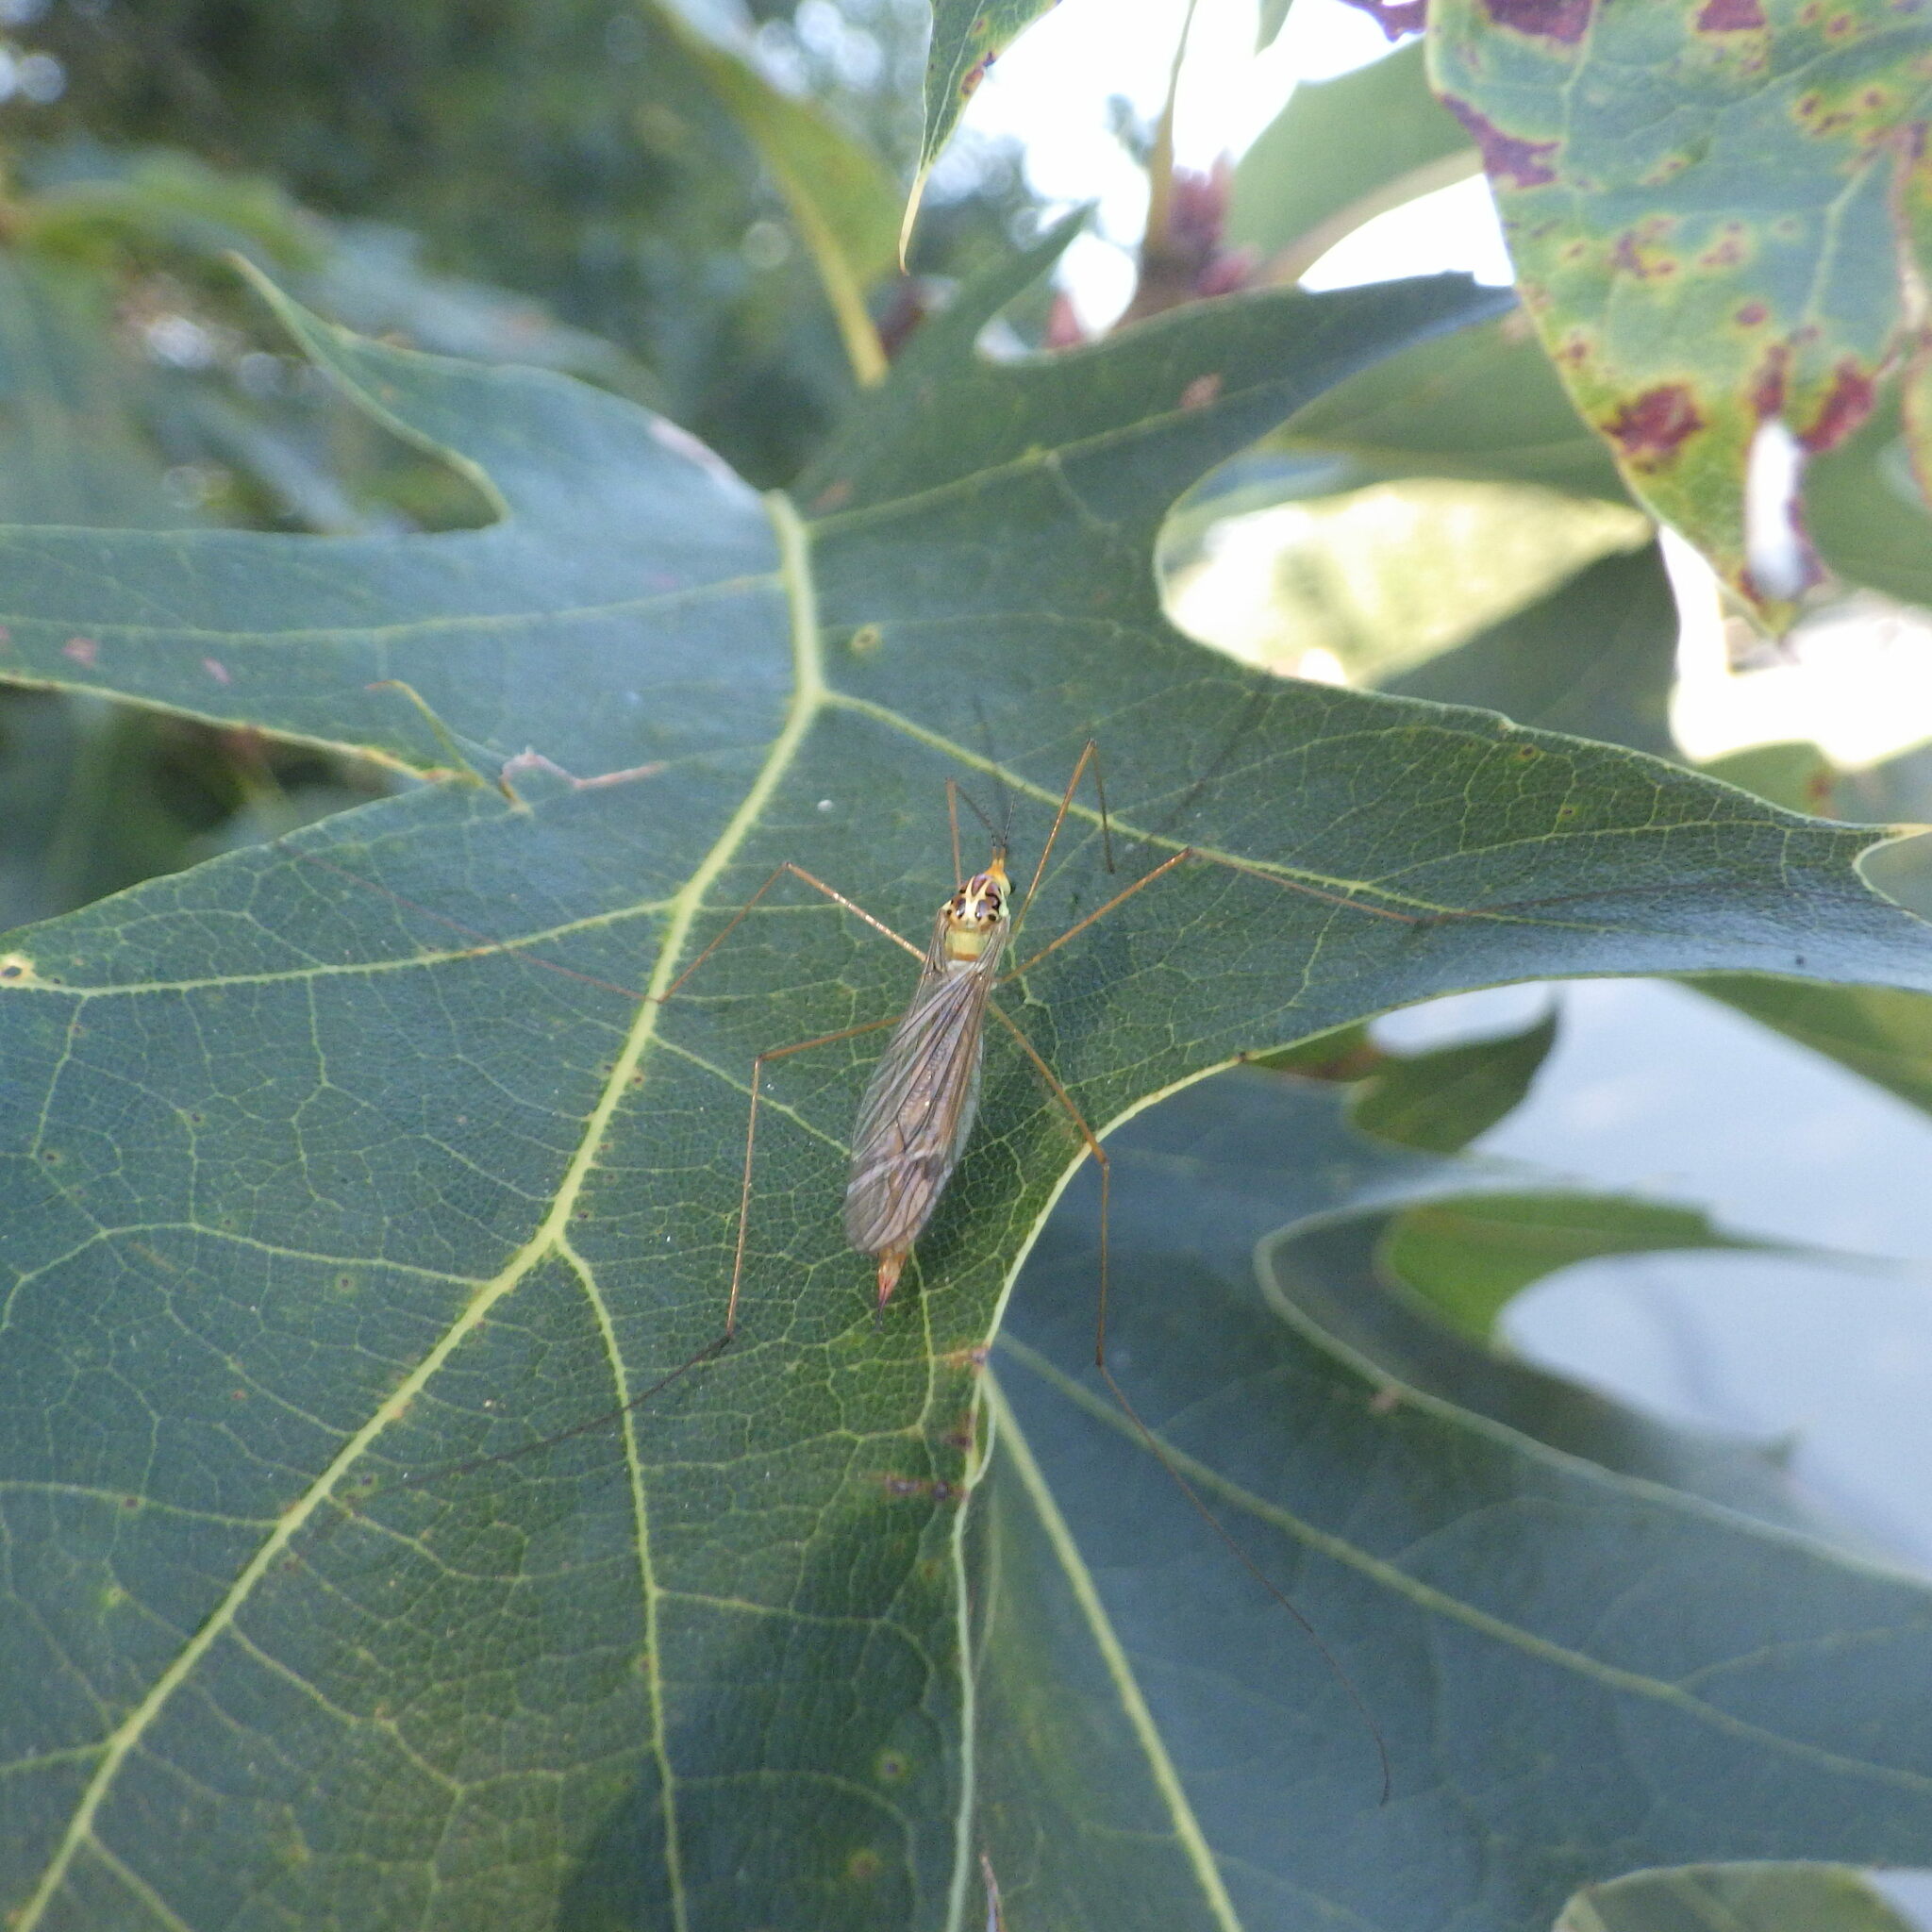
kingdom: Animalia
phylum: Arthropoda
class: Insecta
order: Diptera
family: Tipulidae
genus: Nephrotoma
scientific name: Nephrotoma virescens
